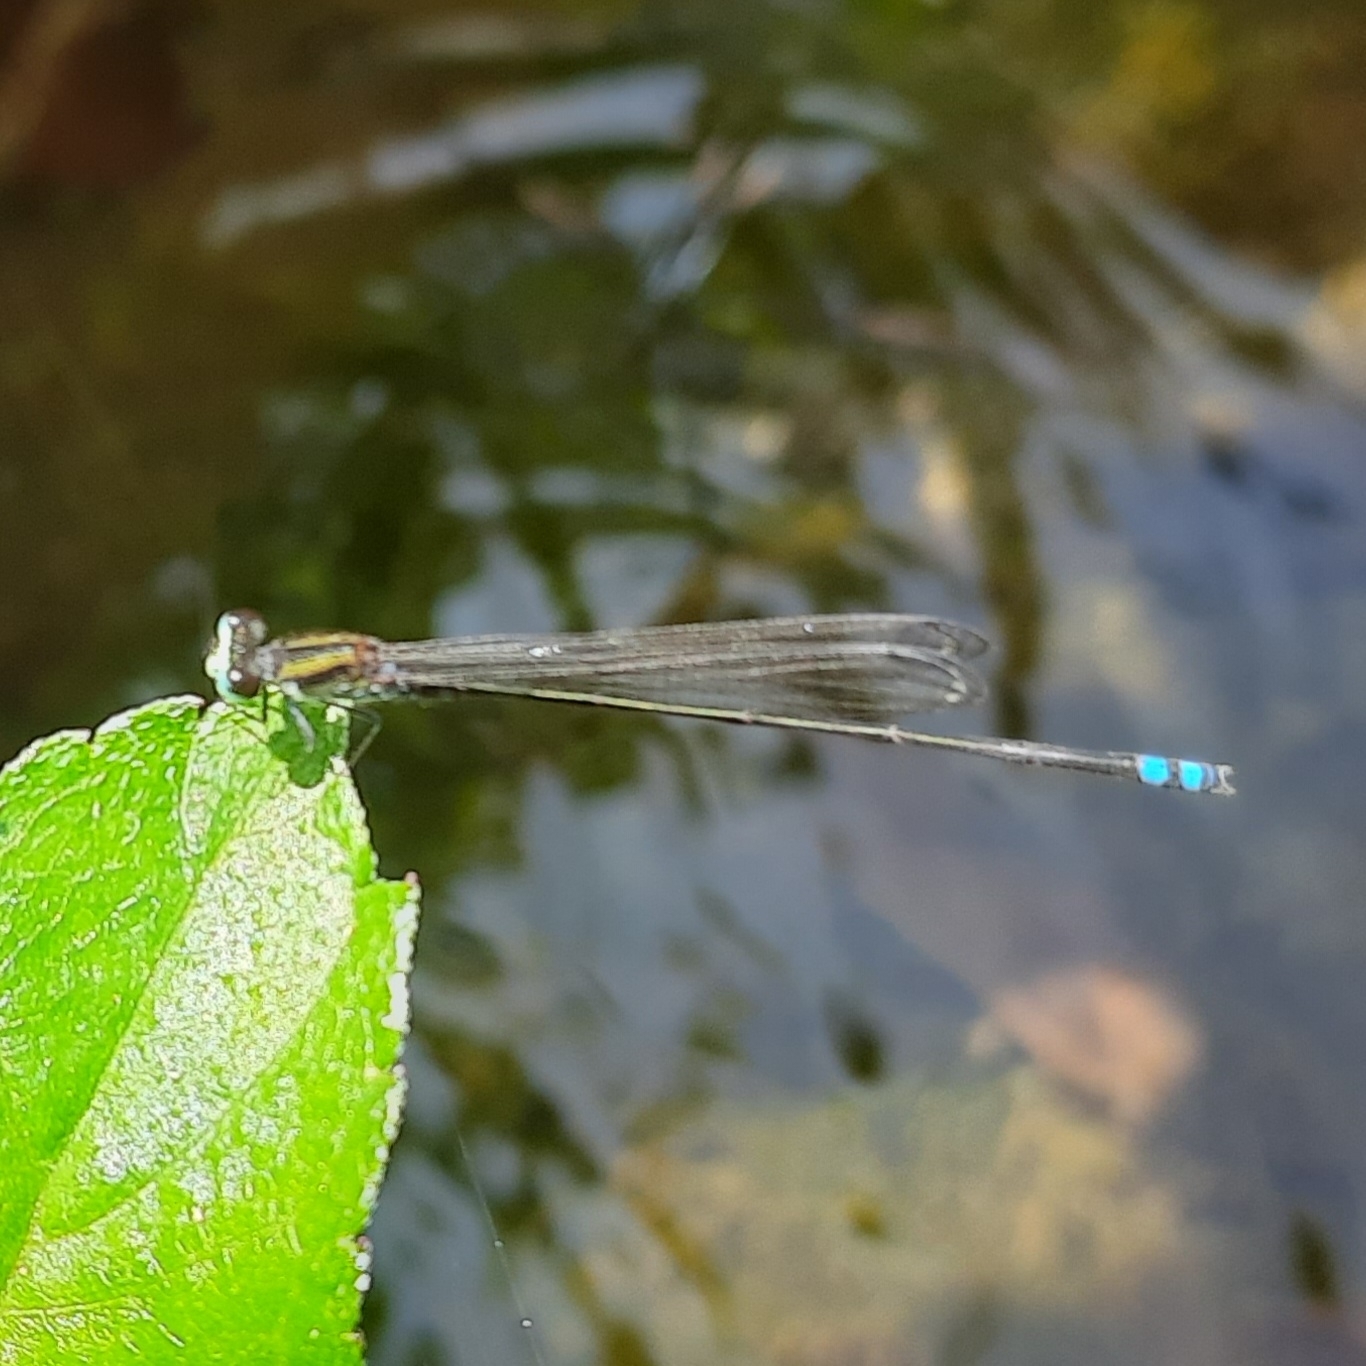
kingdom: Animalia
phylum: Arthropoda
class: Insecta
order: Odonata
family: Coenagrionidae
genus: Pseudagrion
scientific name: Pseudagrion indicum
